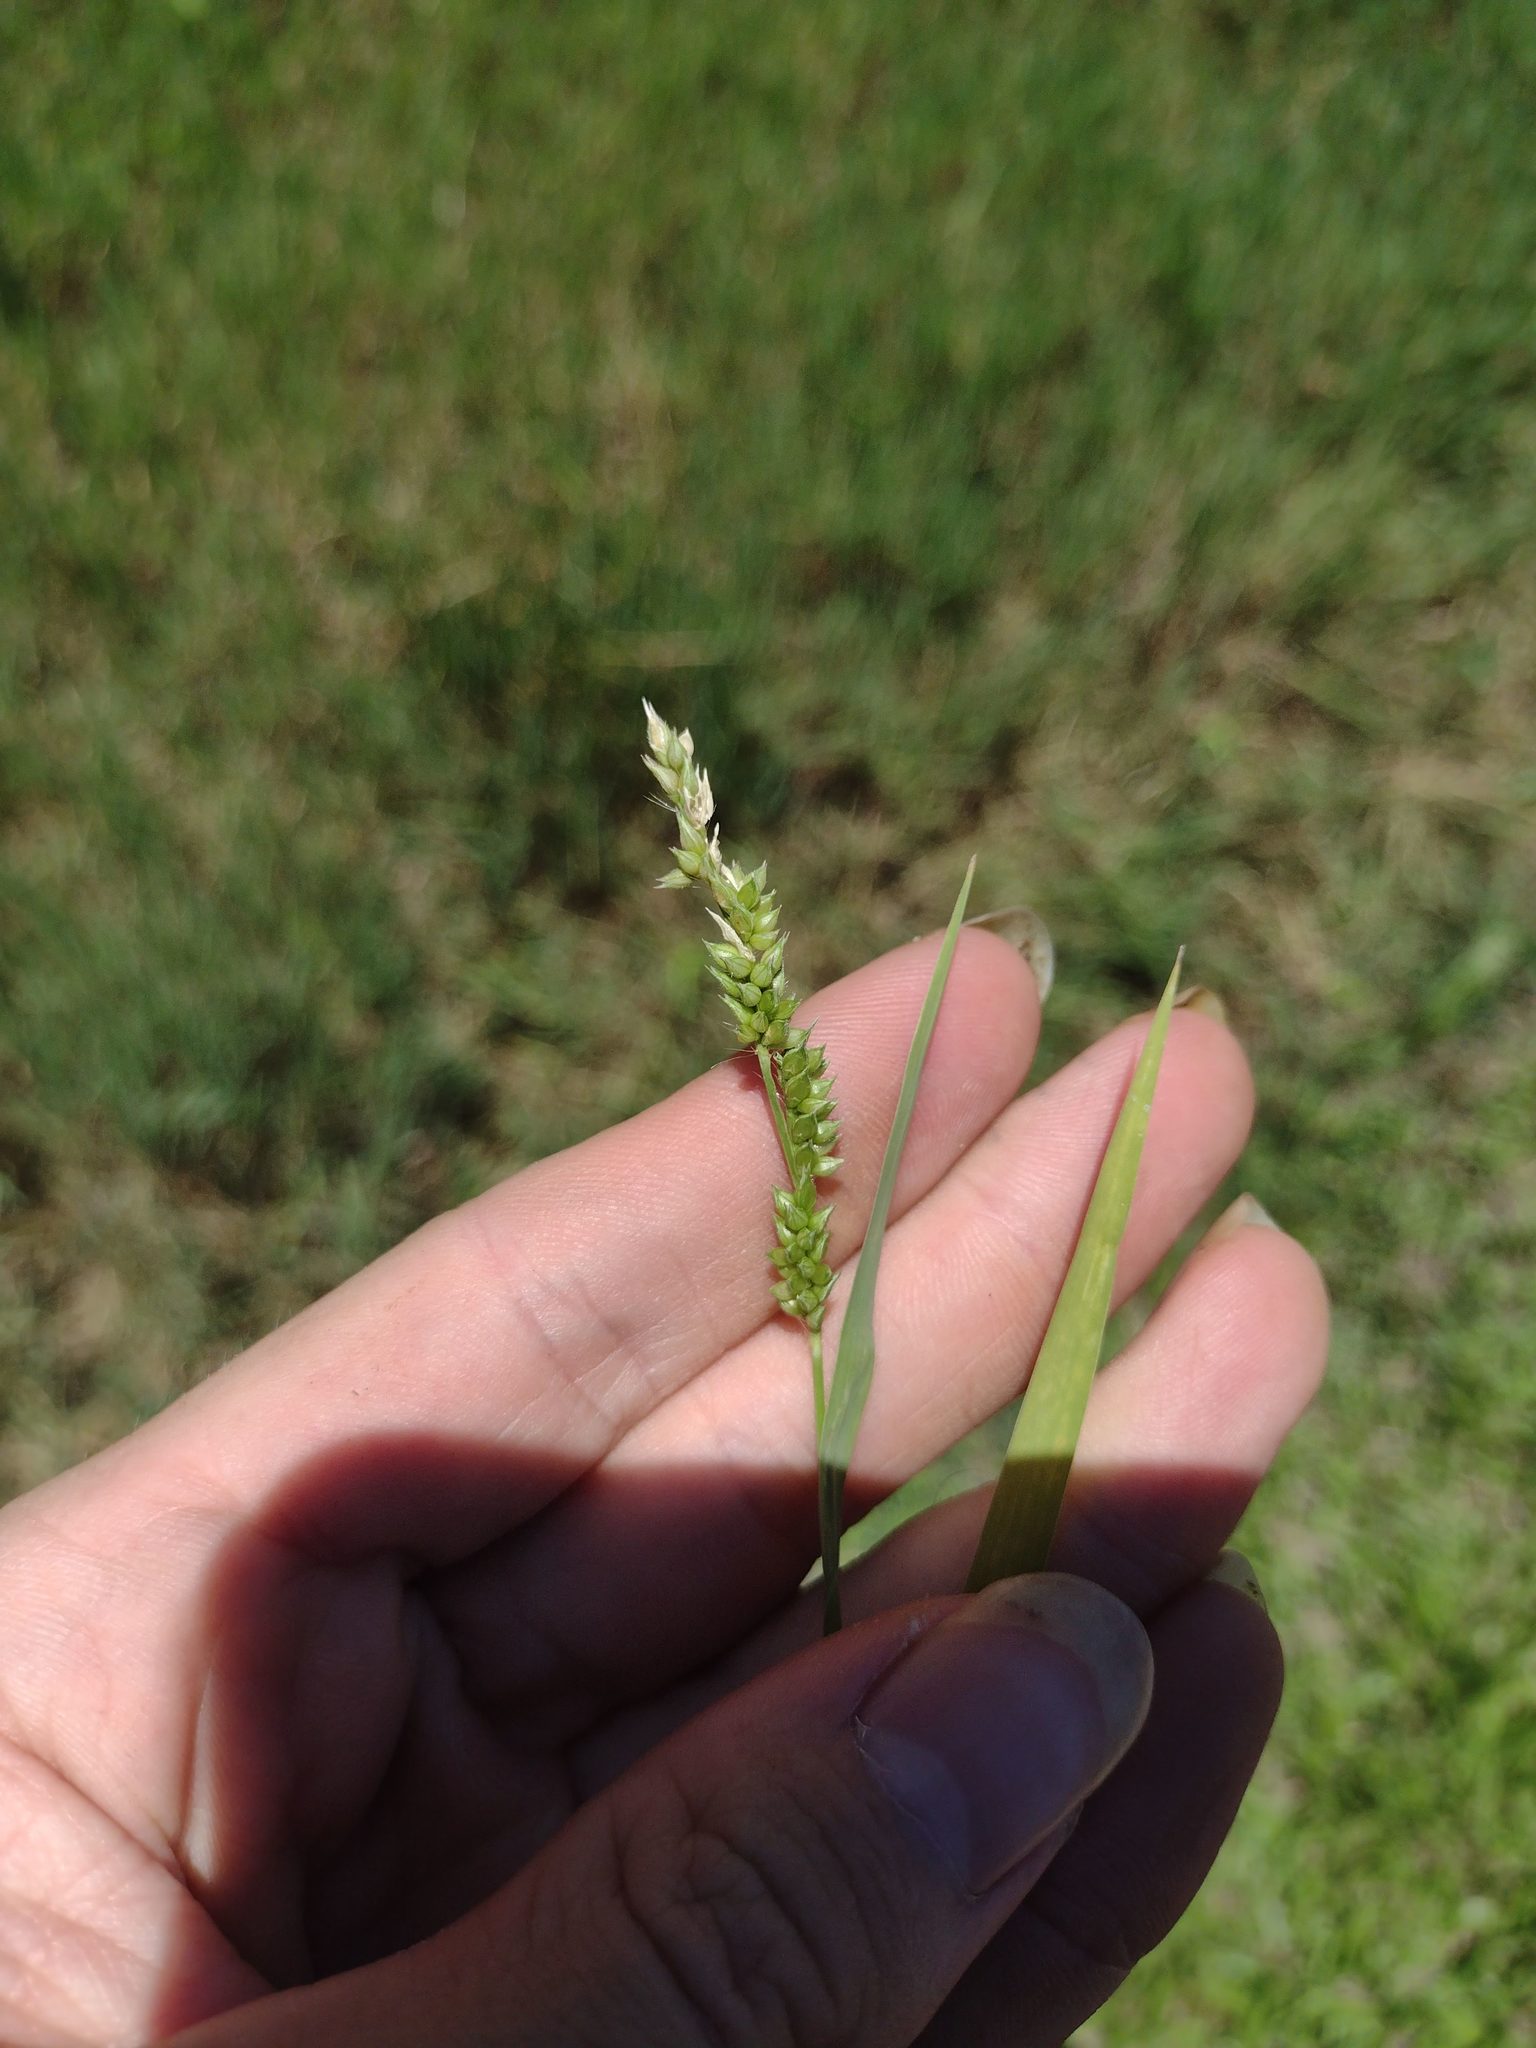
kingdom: Plantae
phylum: Tracheophyta
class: Liliopsida
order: Poales
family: Poaceae
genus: Echinochloa
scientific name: Echinochloa colonum
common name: Jungle rice
